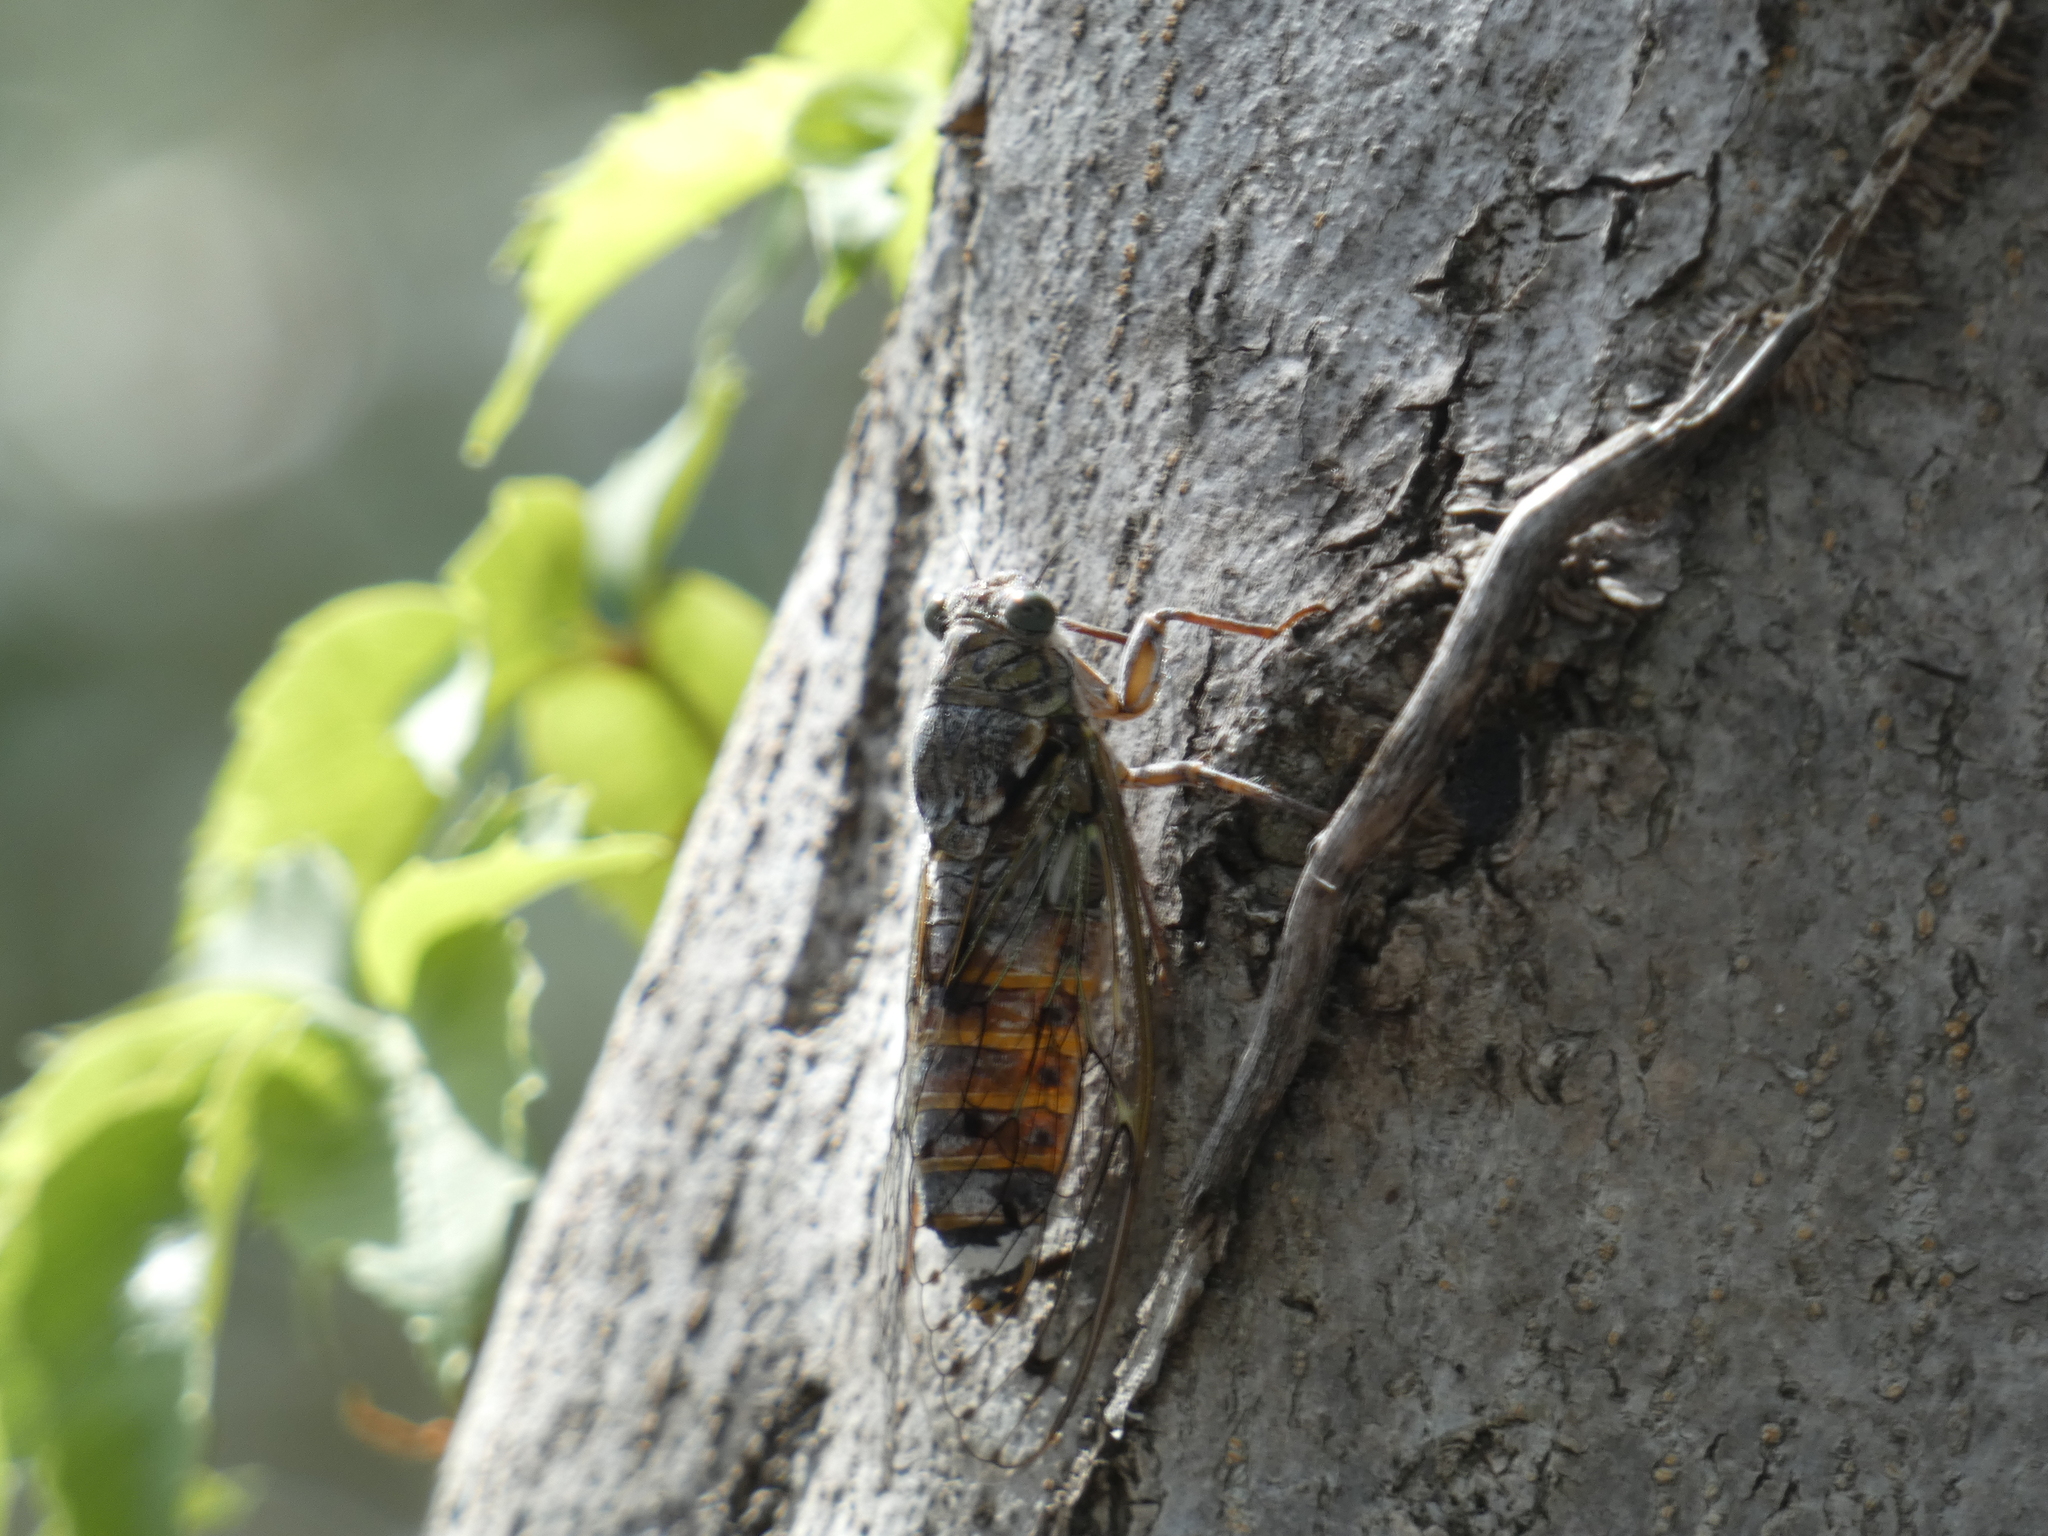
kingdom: Animalia
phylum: Arthropoda
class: Insecta
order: Hemiptera
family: Cicadidae
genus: Cicada
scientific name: Cicada orni
